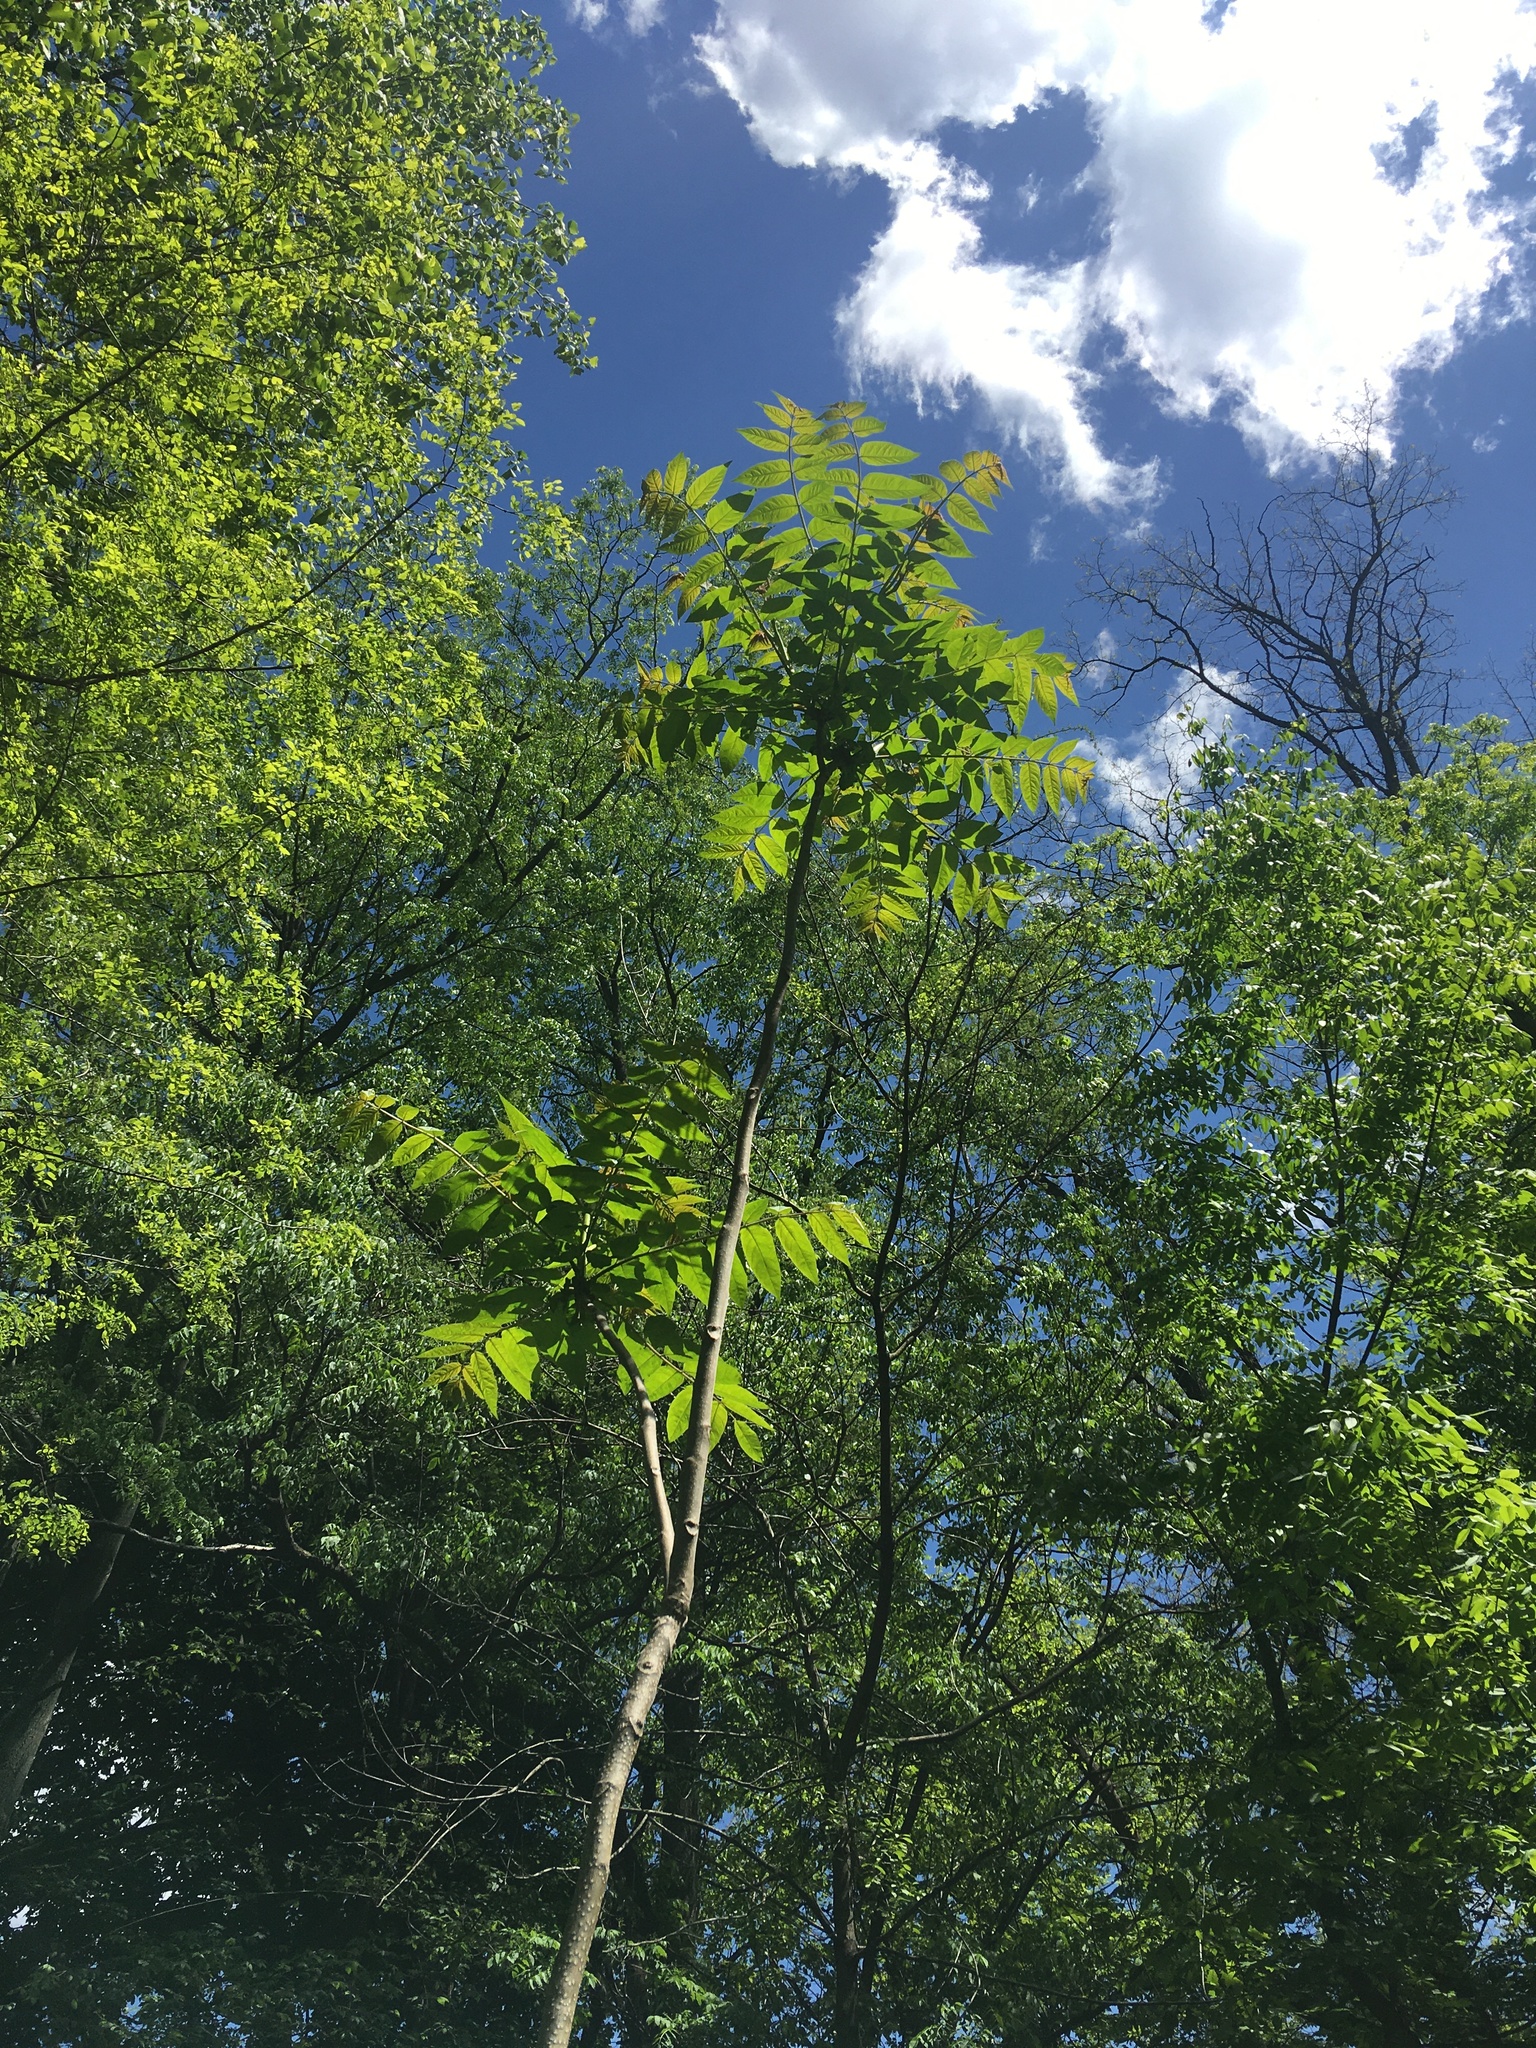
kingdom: Plantae
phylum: Tracheophyta
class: Magnoliopsida
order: Sapindales
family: Meliaceae
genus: Toona
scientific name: Toona sinensis
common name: Red toon
